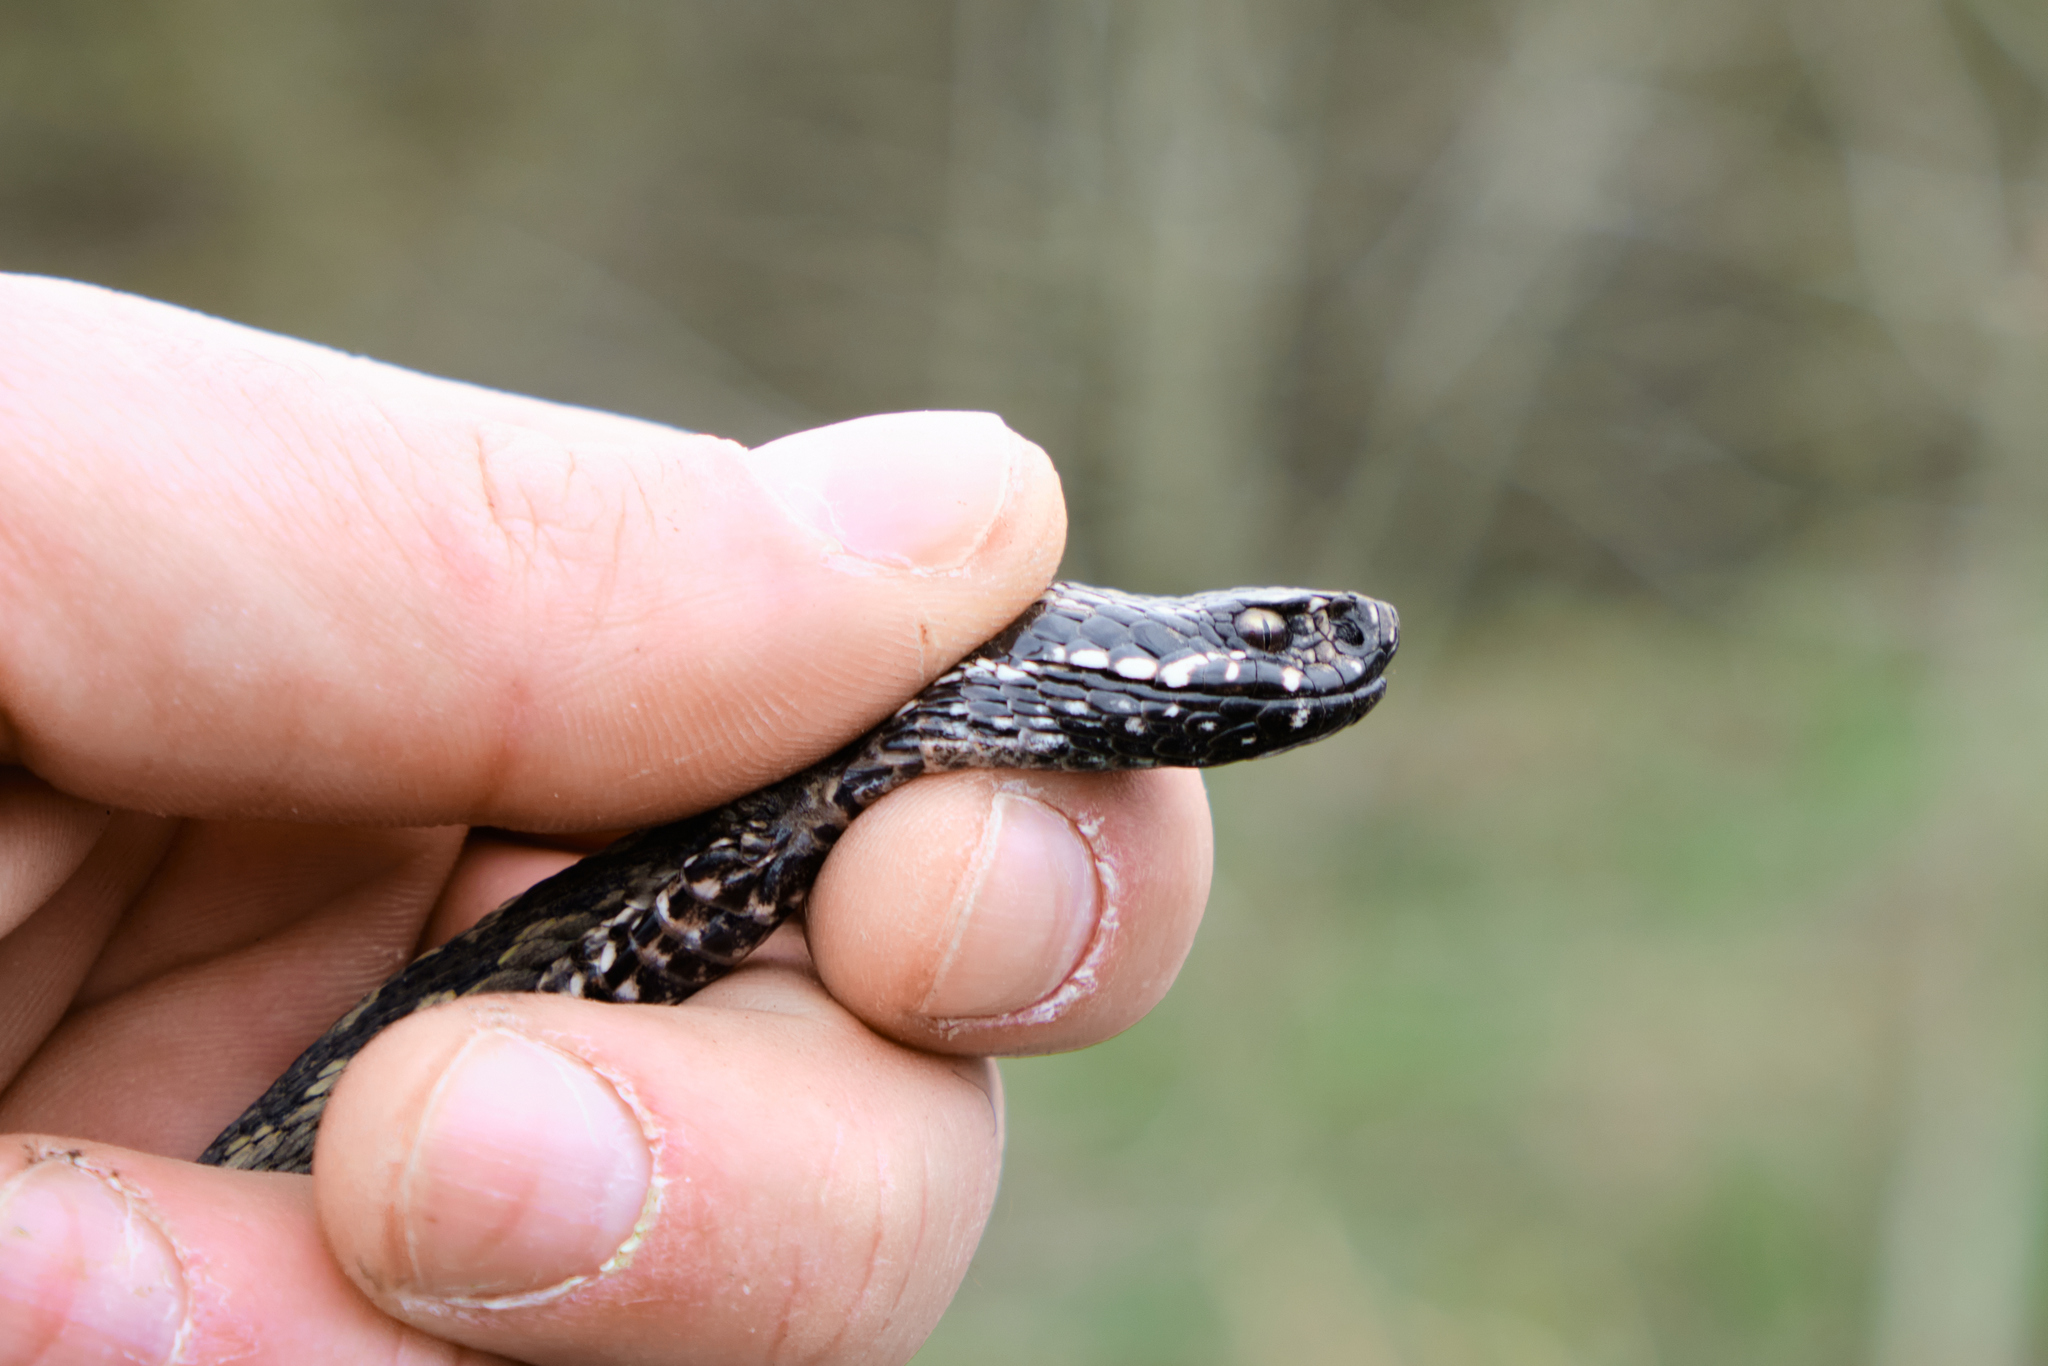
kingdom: Animalia
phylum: Chordata
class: Squamata
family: Viperidae
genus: Vipera
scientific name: Vipera renardi
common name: Eastern steppe viper
